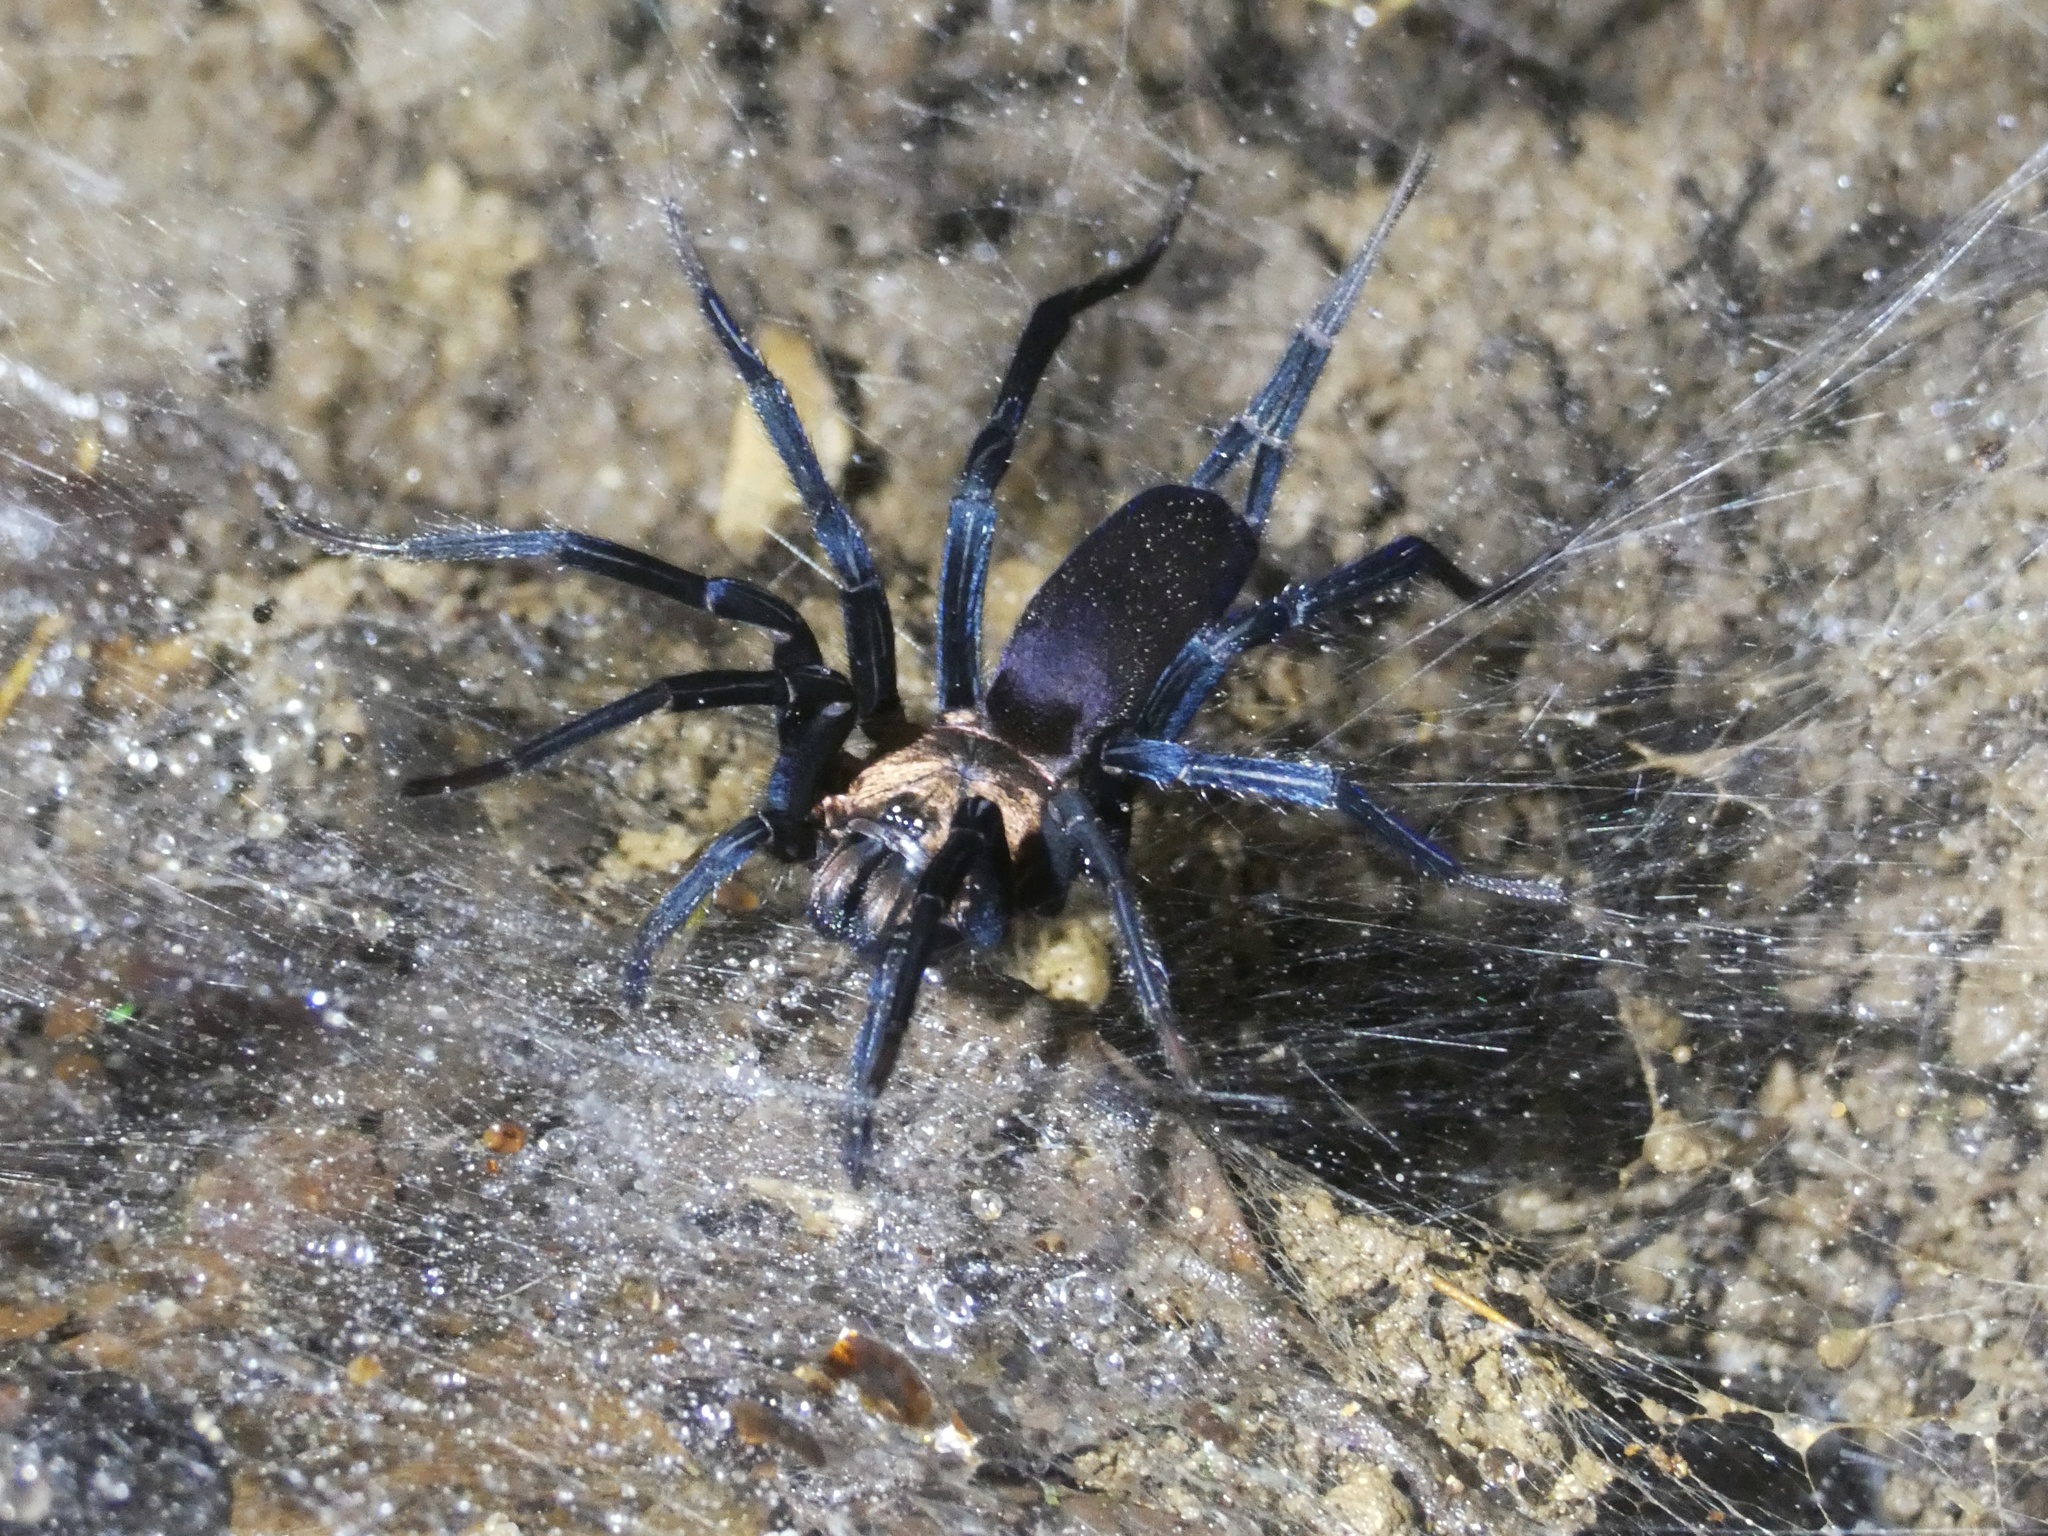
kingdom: Animalia
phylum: Arthropoda
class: Arachnida
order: Araneae
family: Dipluridae
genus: Linothele
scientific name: Linothele sericata
